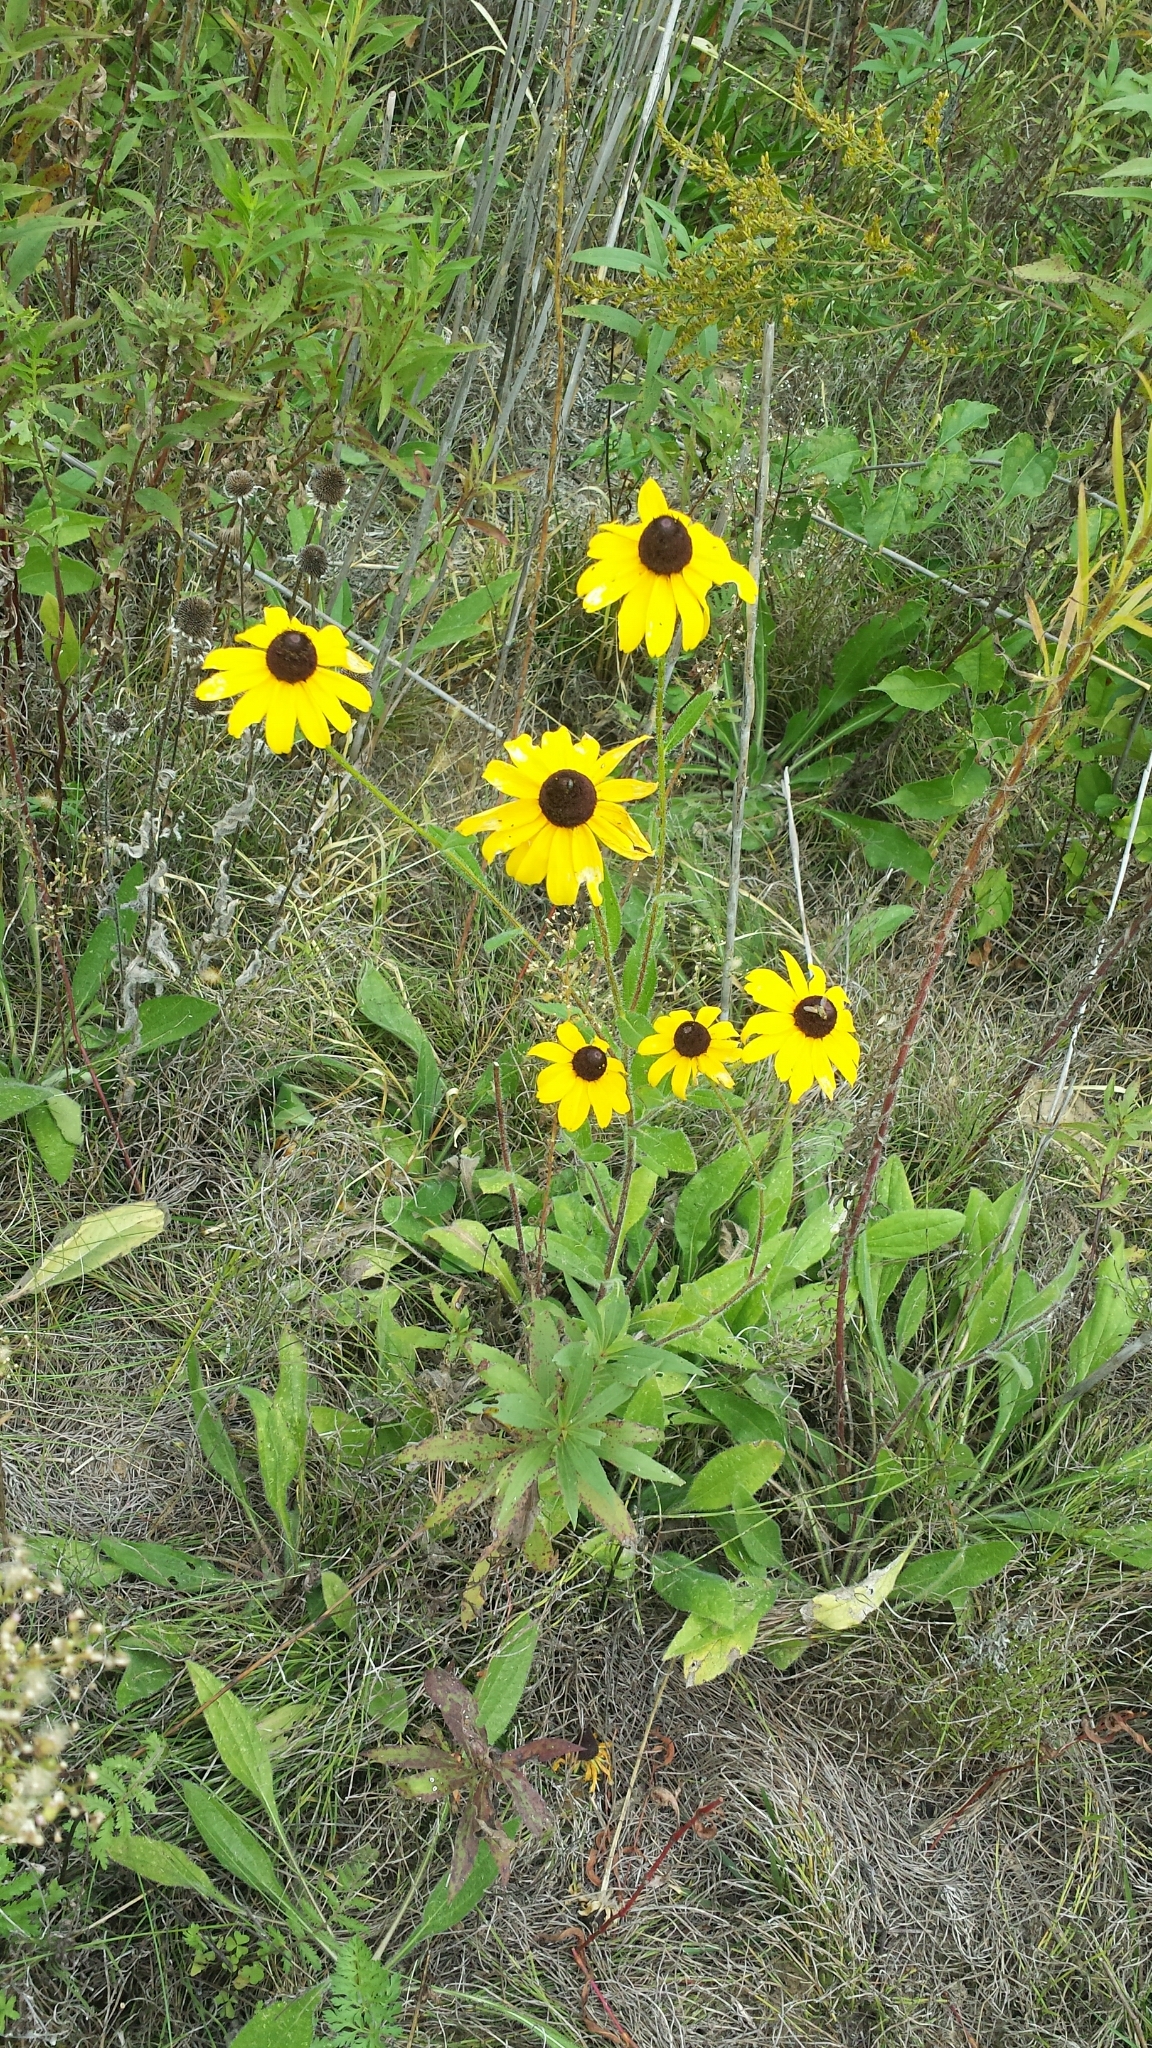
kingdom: Plantae
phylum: Tracheophyta
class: Magnoliopsida
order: Asterales
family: Asteraceae
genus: Rudbeckia
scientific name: Rudbeckia hirta
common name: Black-eyed-susan
